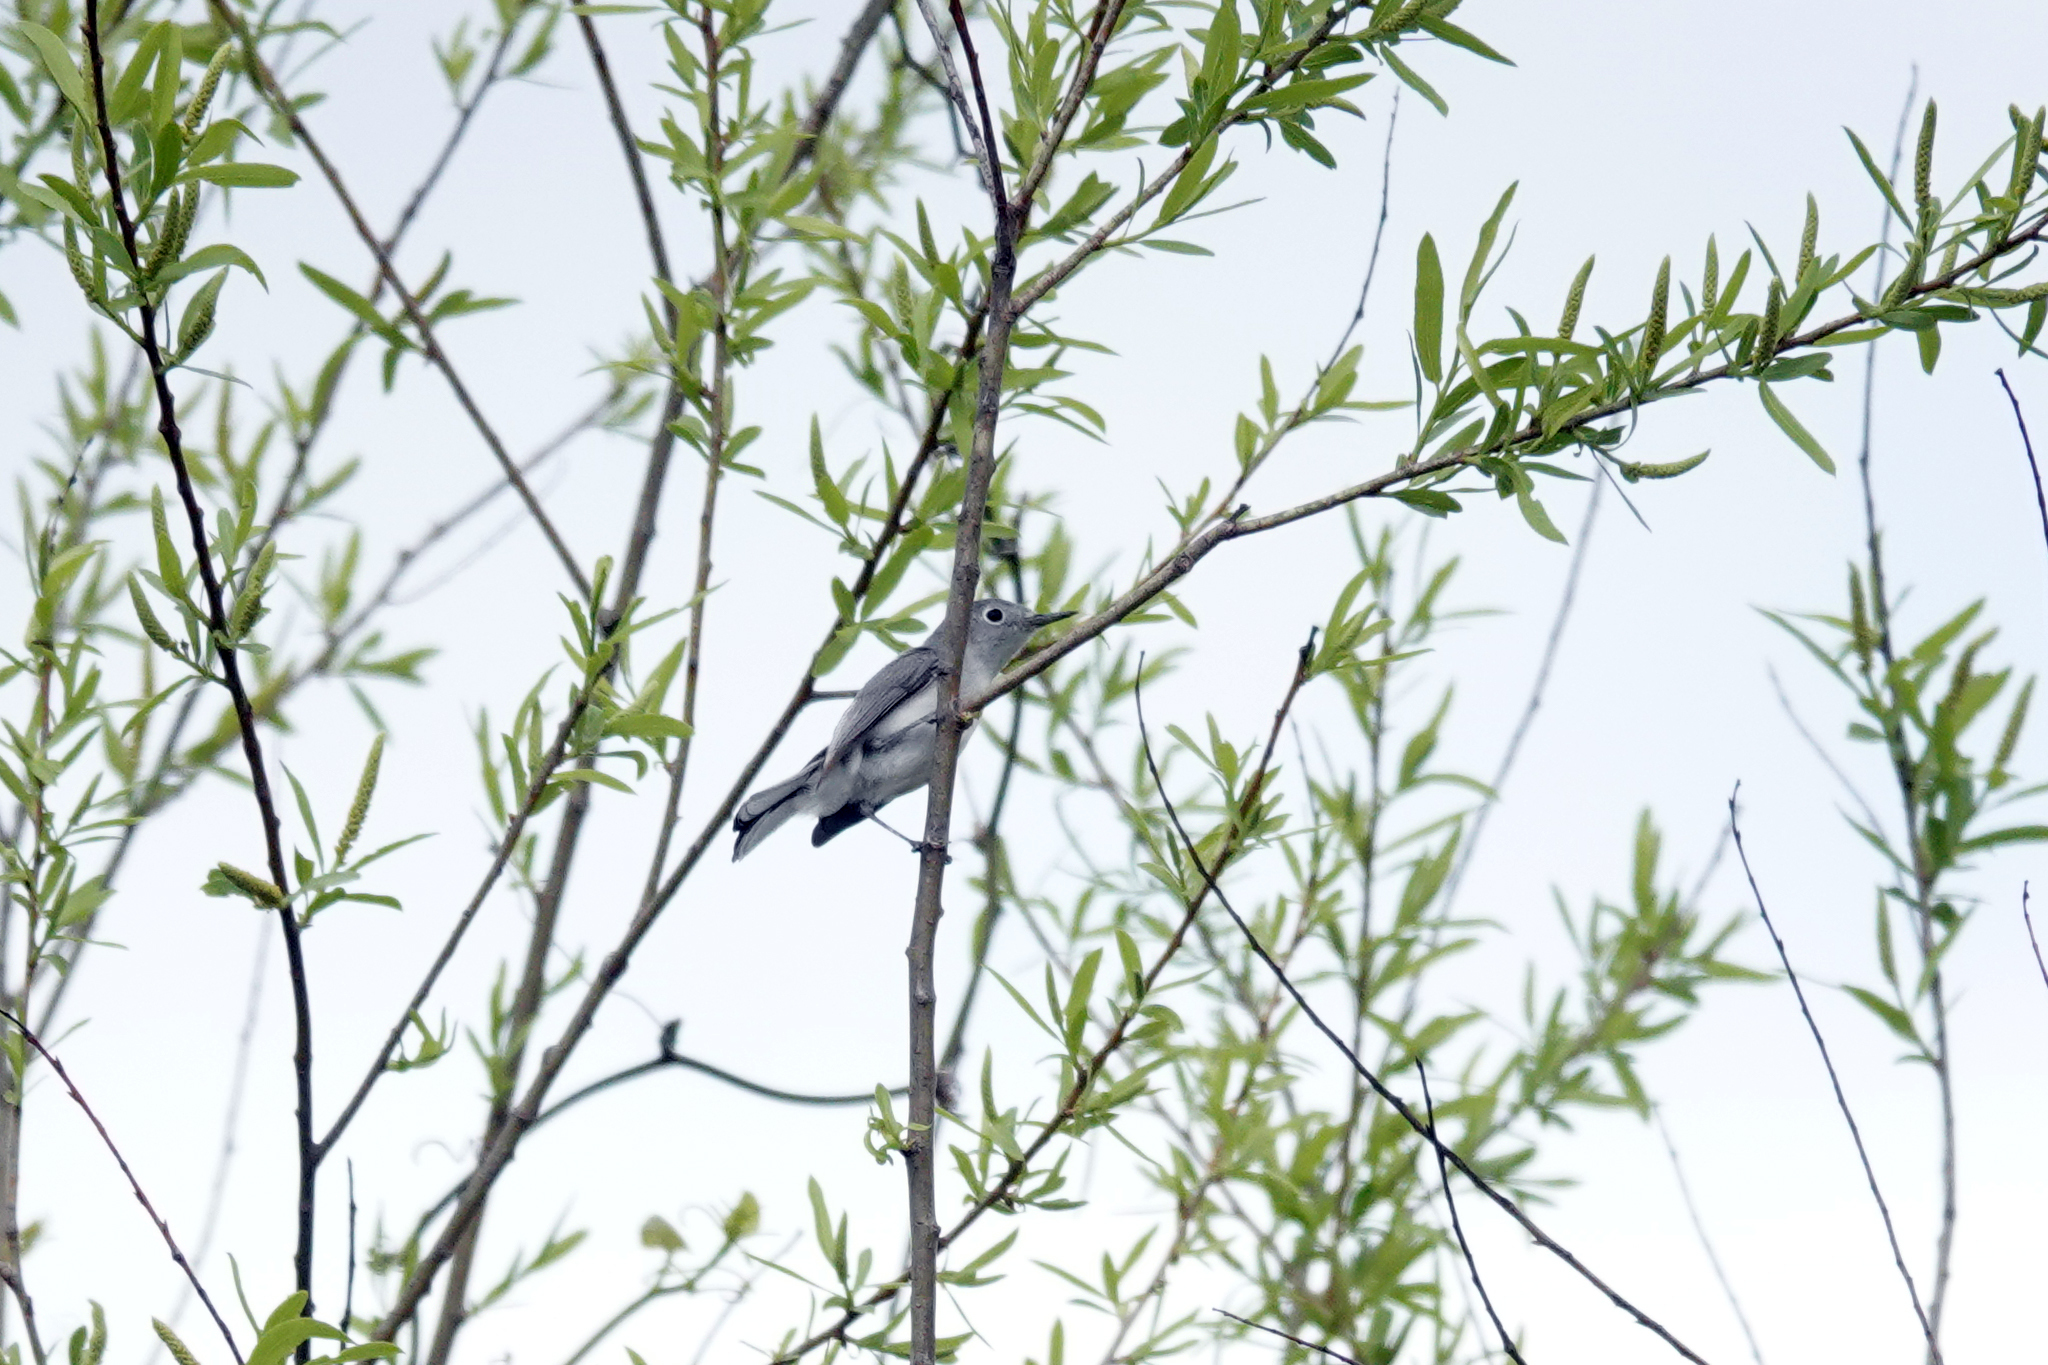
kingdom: Animalia
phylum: Chordata
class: Aves
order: Passeriformes
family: Polioptilidae
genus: Polioptila
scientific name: Polioptila caerulea
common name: Blue-gray gnatcatcher
